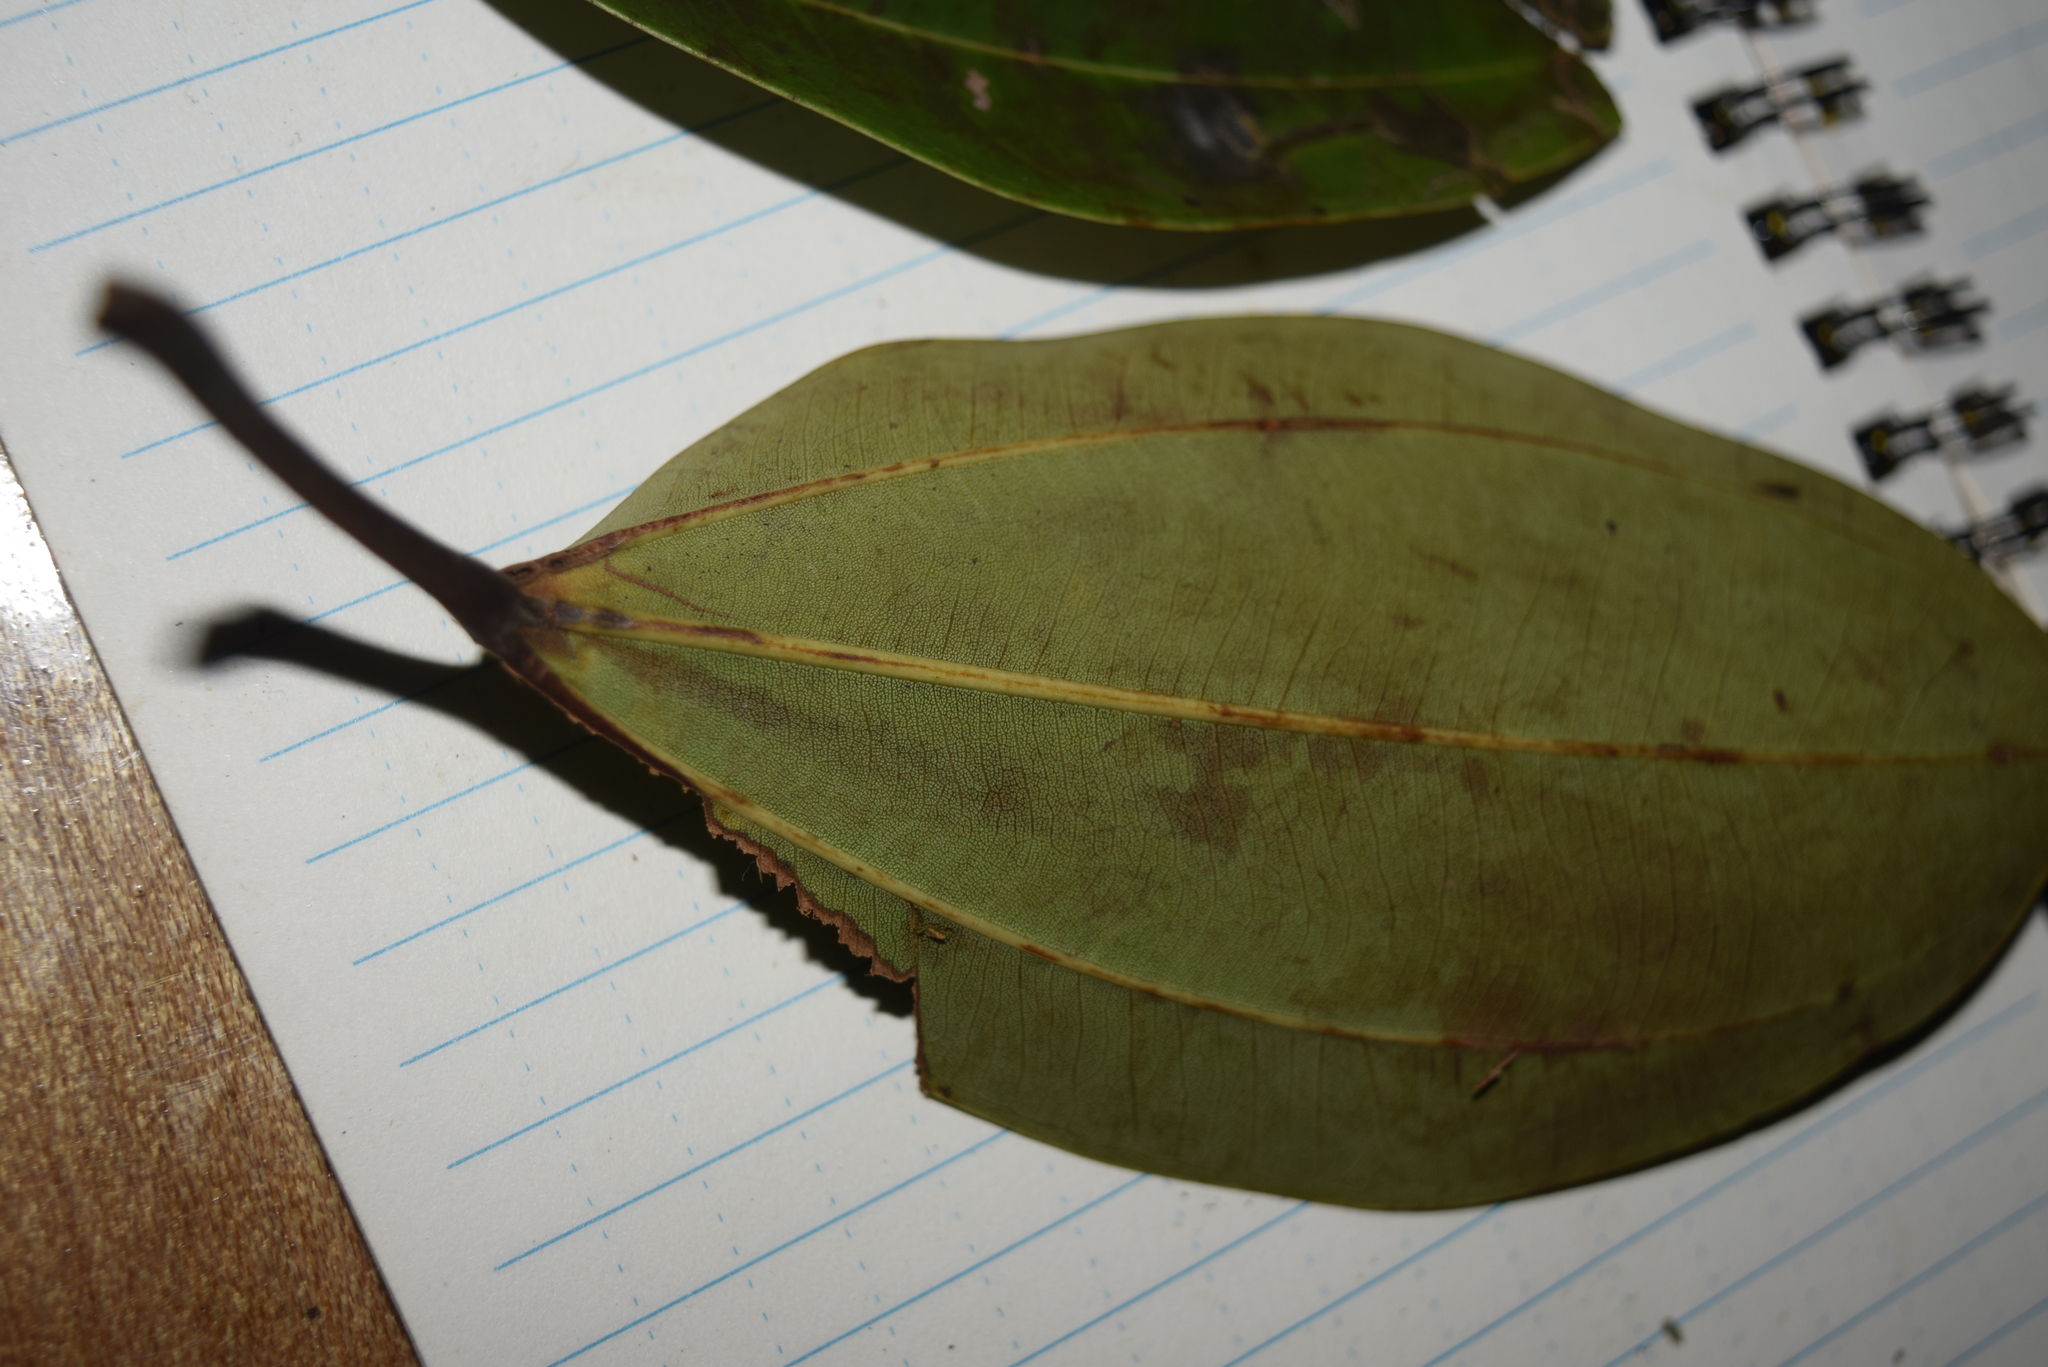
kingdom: Plantae
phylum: Tracheophyta
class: Magnoliopsida
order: Rosales
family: Urticaceae
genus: Coussapoa
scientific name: Coussapoa trinervia
